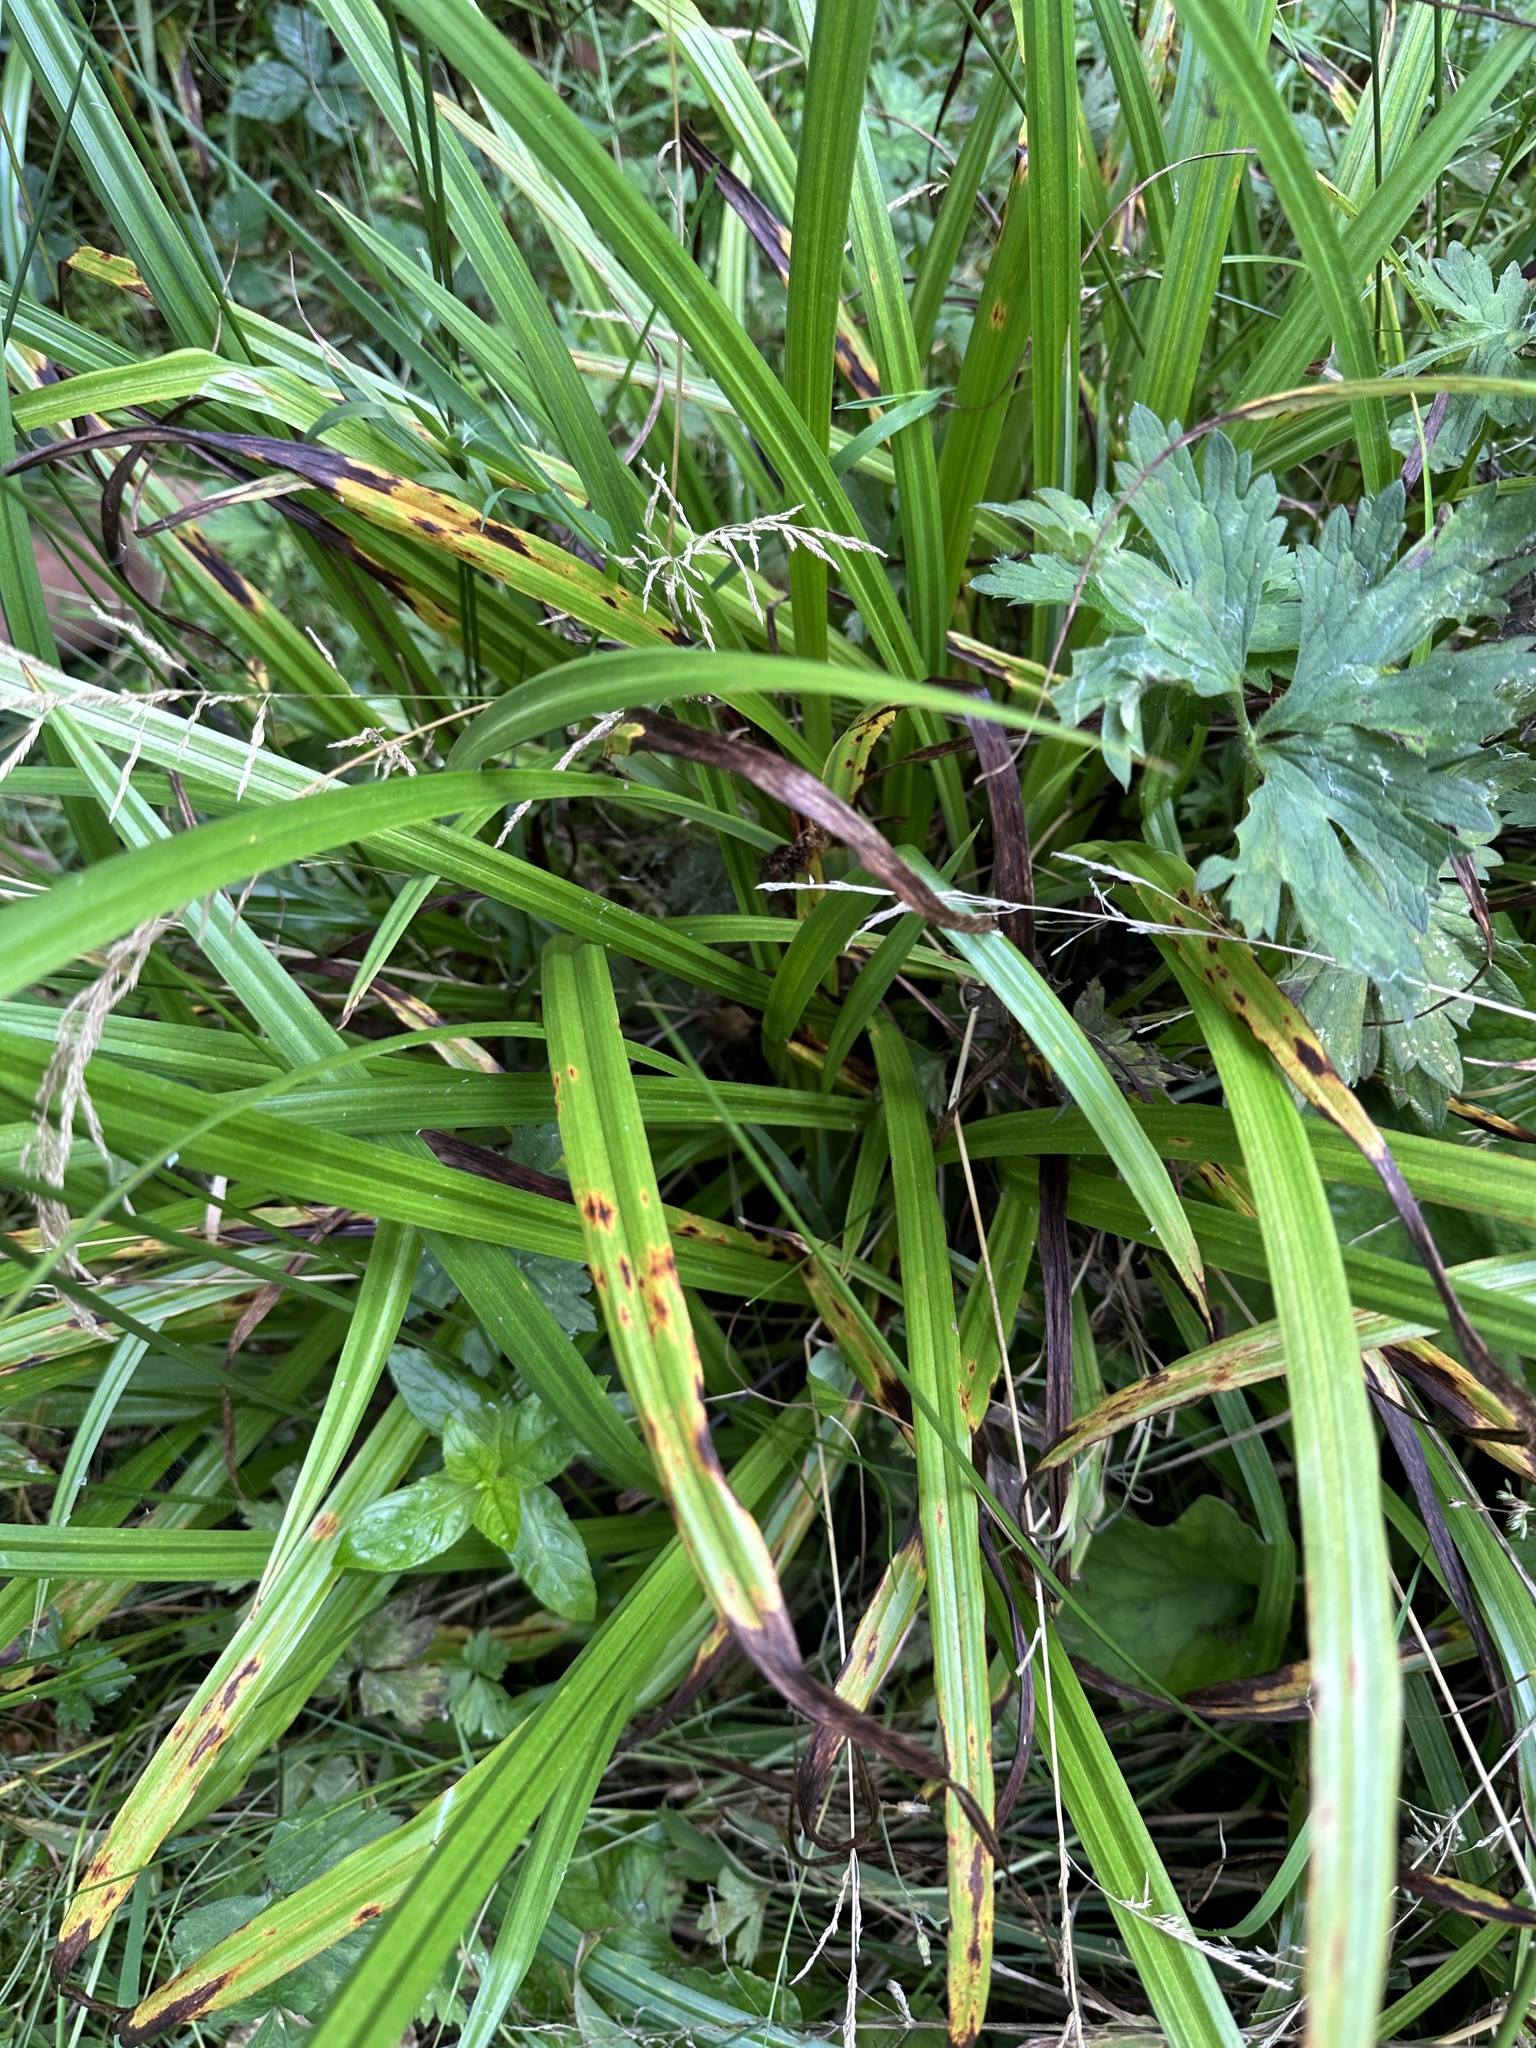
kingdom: Plantae
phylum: Tracheophyta
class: Liliopsida
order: Poales
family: Cyperaceae
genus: Carex
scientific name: Carex pendula
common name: Pendulous sedge
